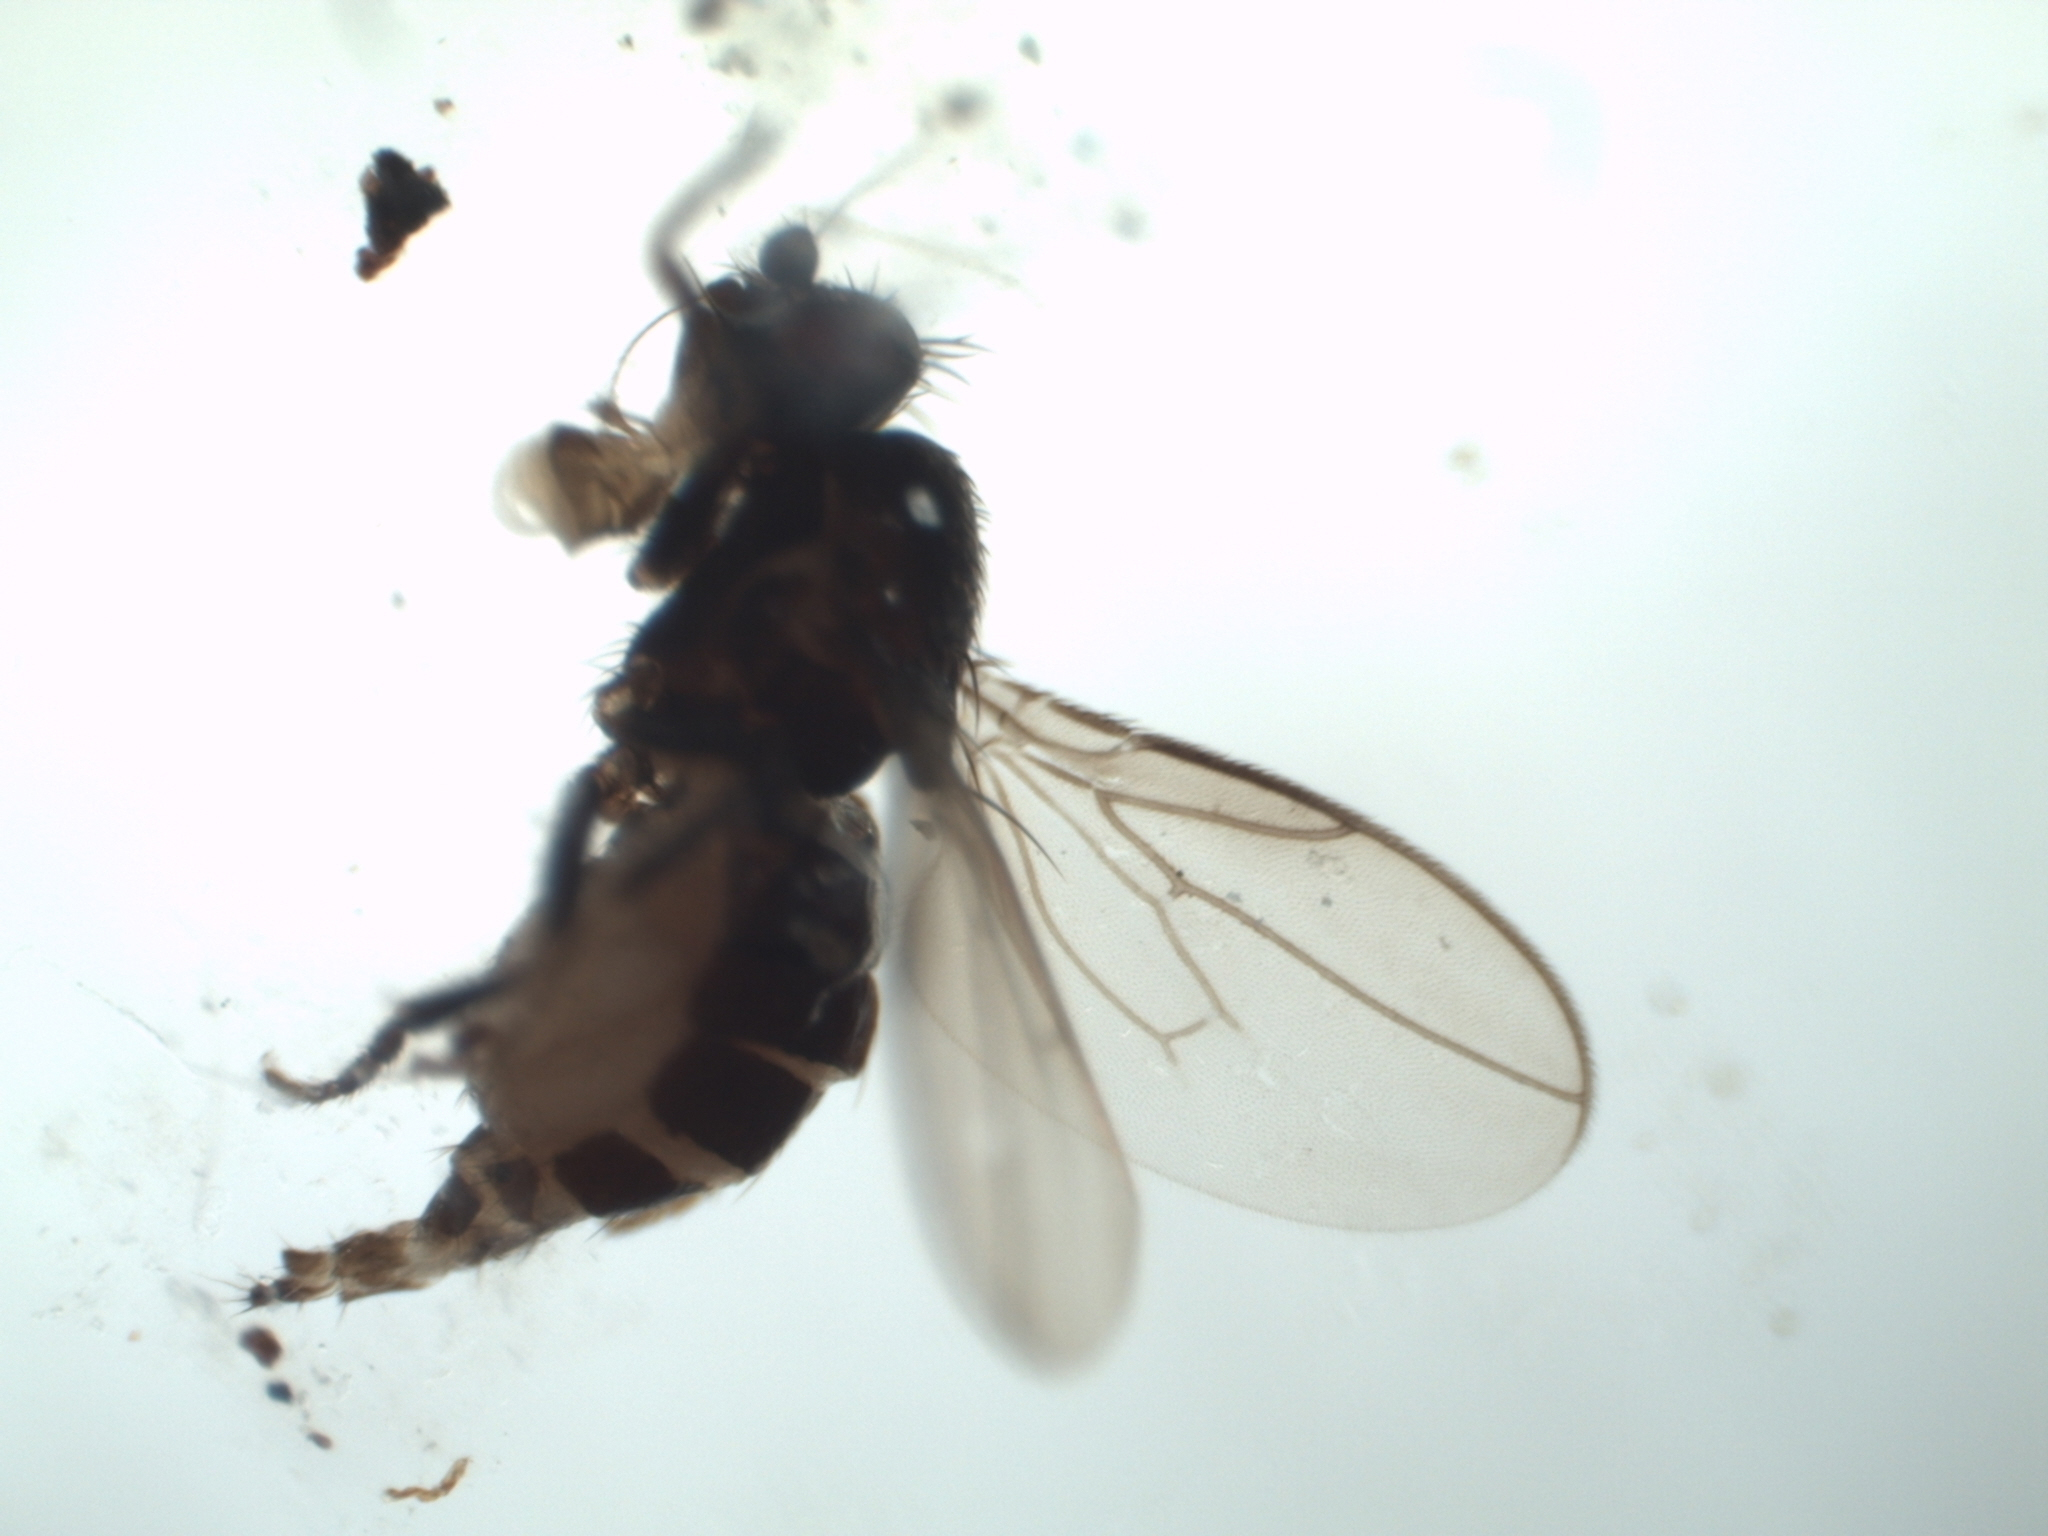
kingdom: Animalia
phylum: Arthropoda
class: Insecta
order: Diptera
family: Sphaeroceridae
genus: Minilimosina
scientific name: Minilimosina parva
